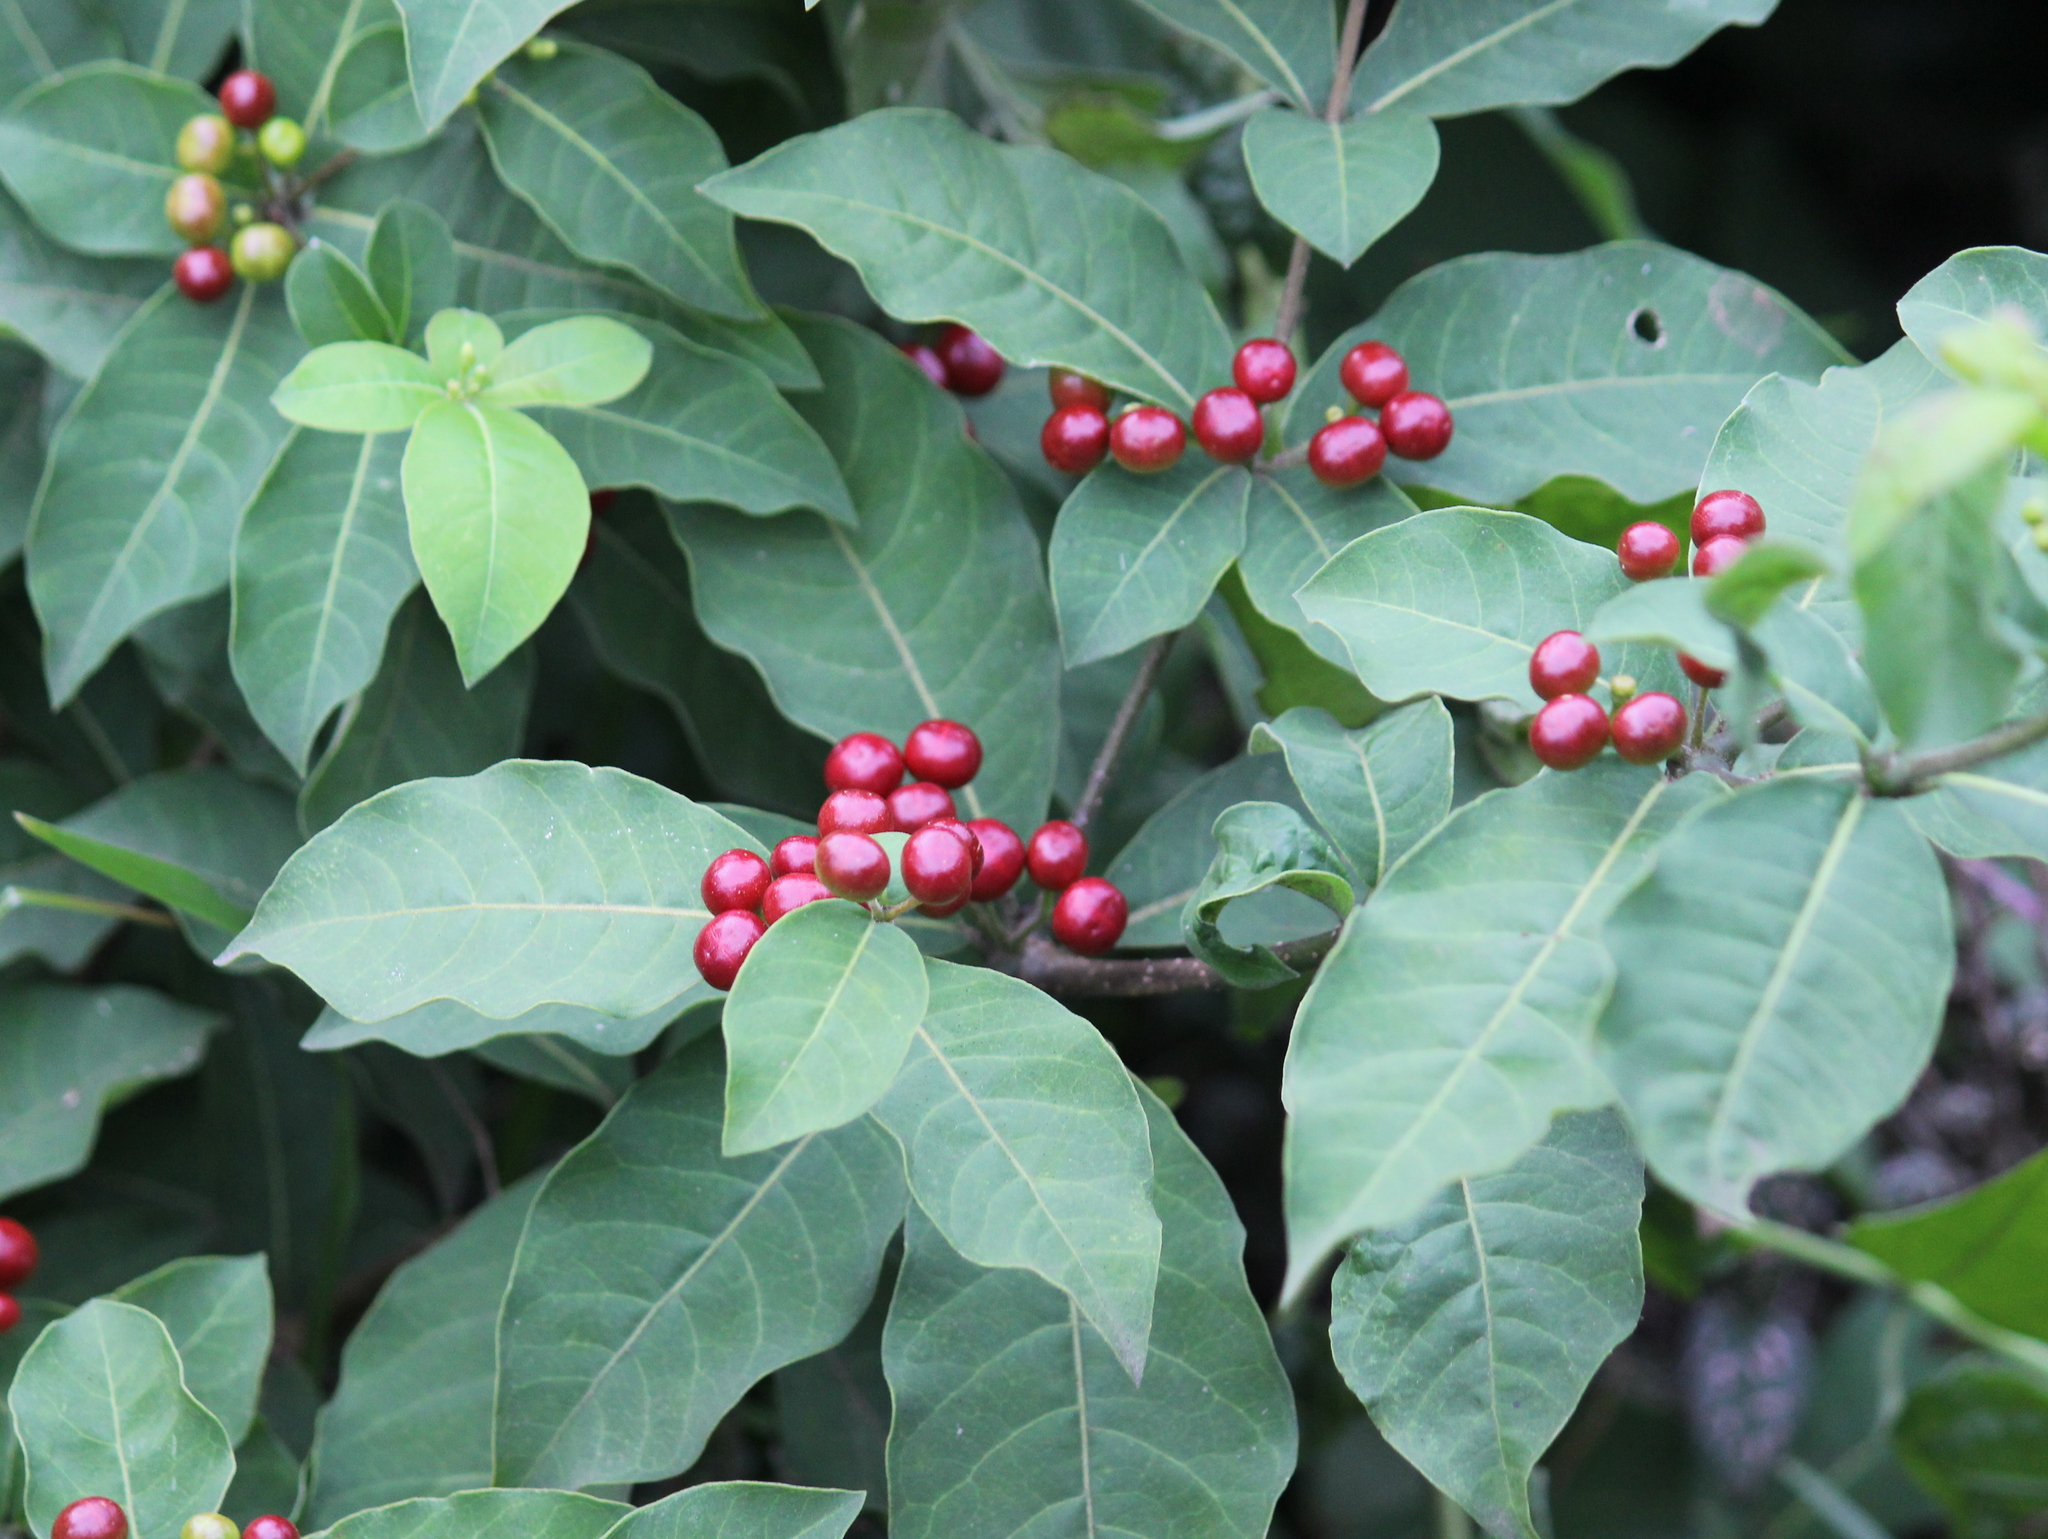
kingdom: Plantae
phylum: Tracheophyta
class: Magnoliopsida
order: Gentianales
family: Apocynaceae
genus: Rauvolfia
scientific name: Rauvolfia tetraphylla
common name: Four-leaf devil-pepper
